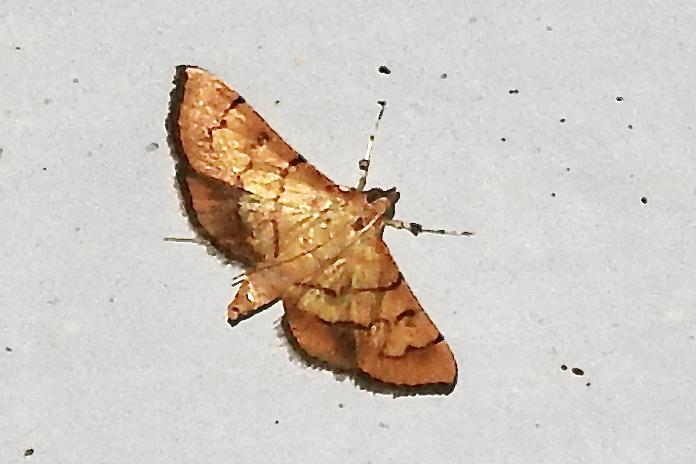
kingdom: Animalia
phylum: Arthropoda
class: Insecta
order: Lepidoptera
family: Crambidae
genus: Orphanostigma
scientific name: Orphanostigma abruptalis
